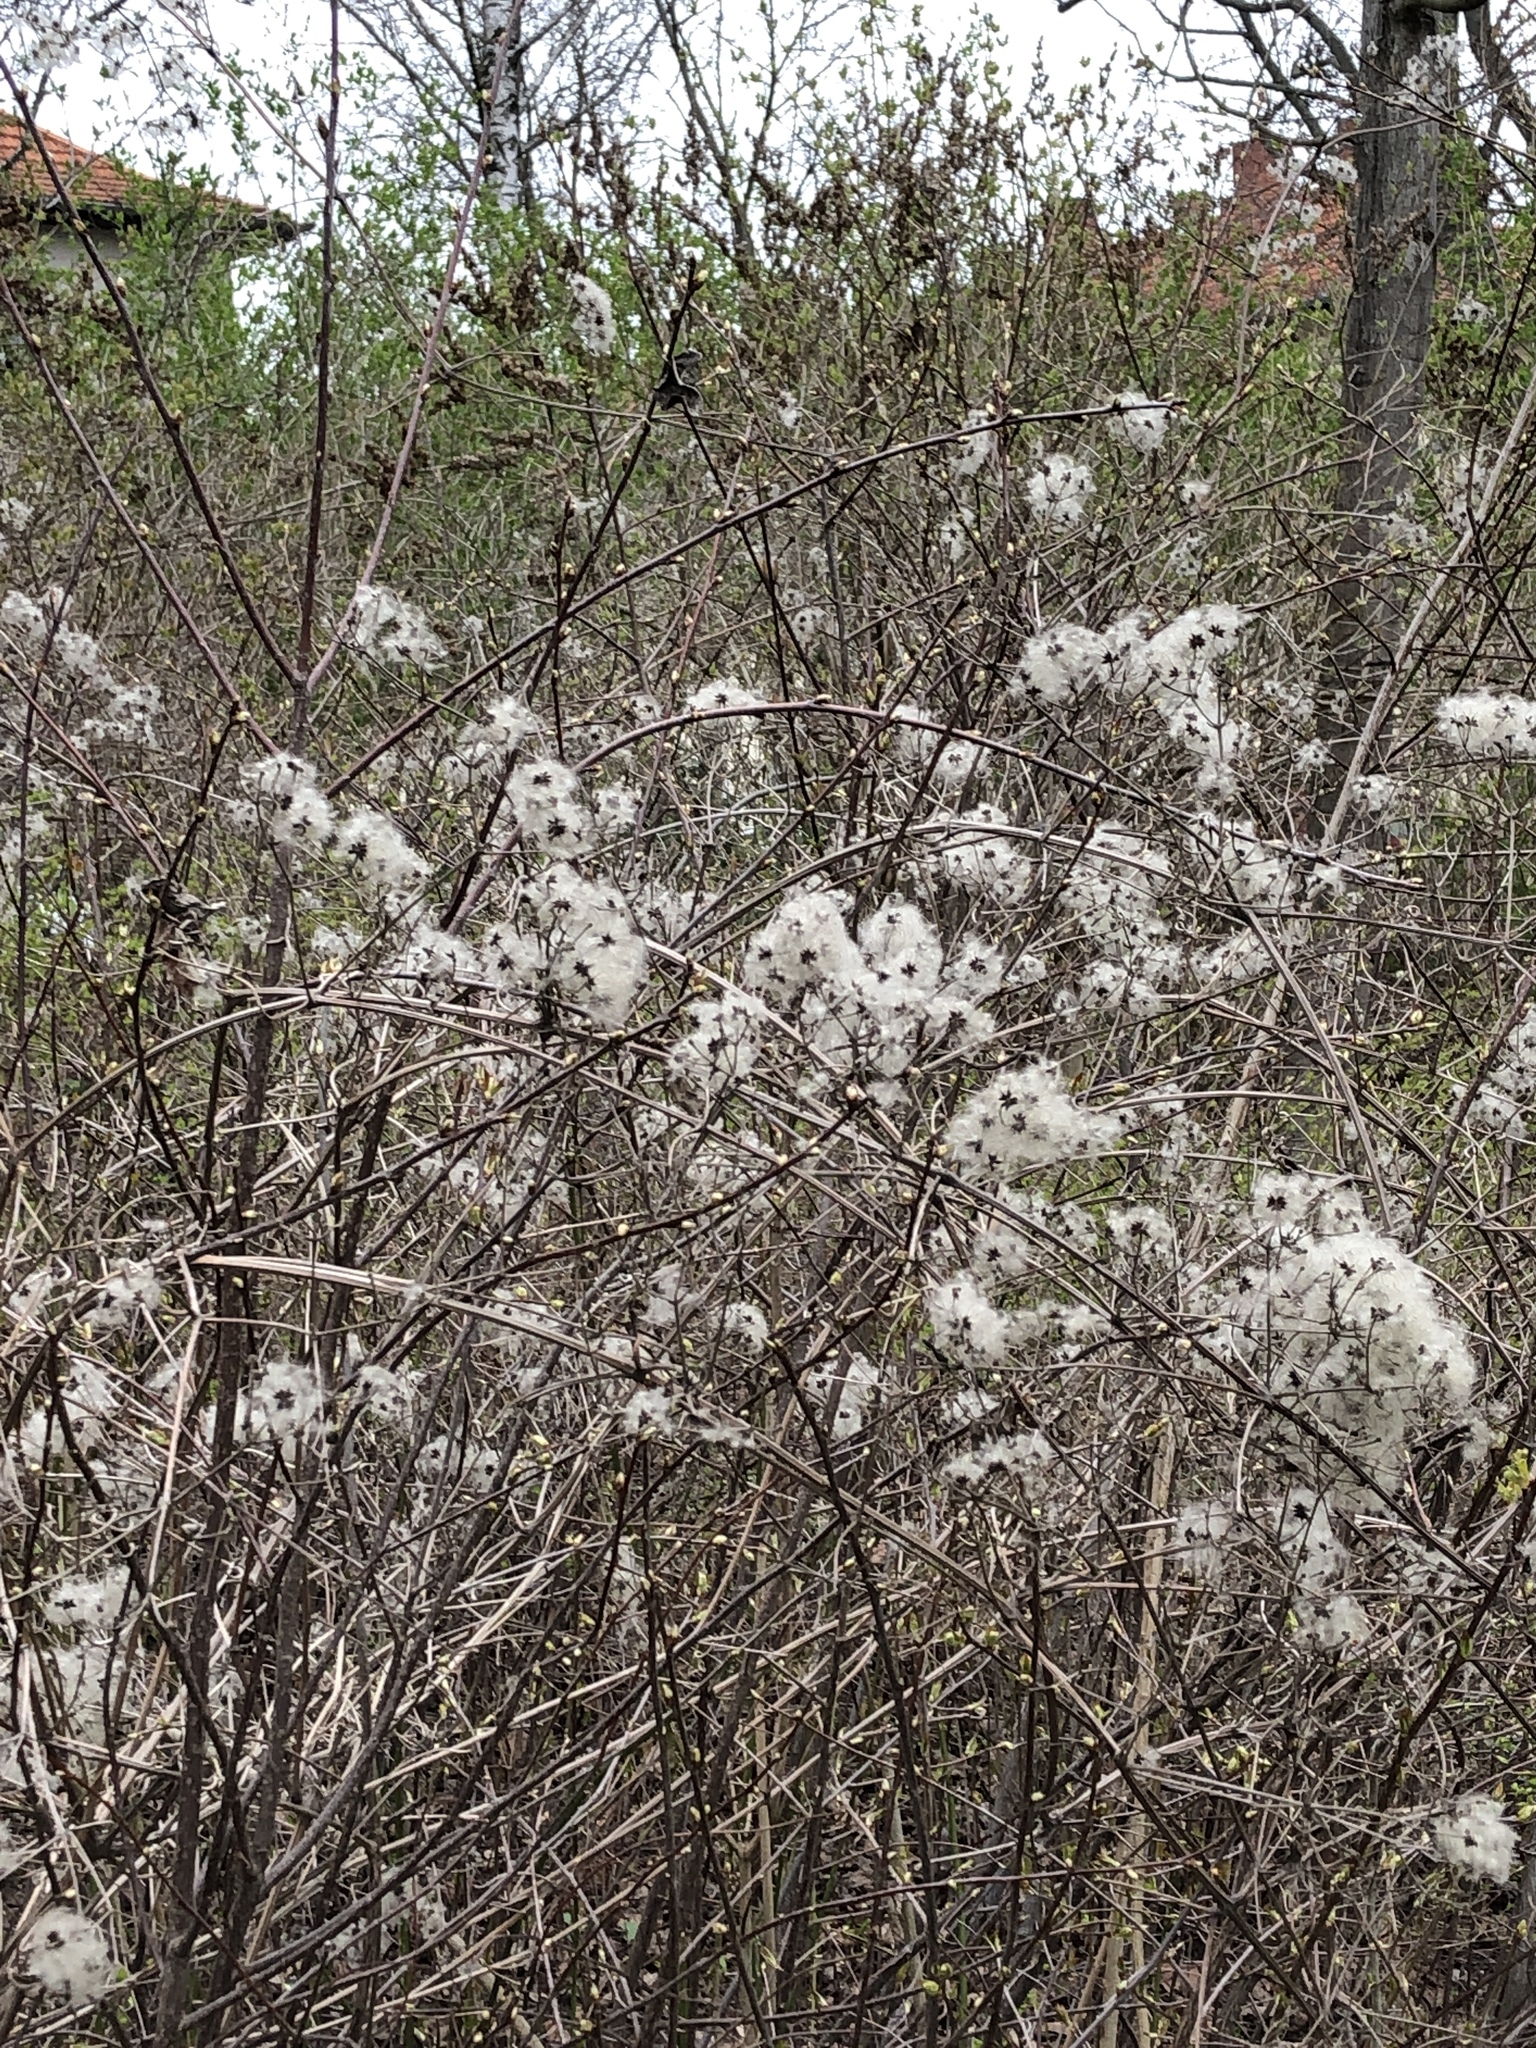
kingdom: Plantae
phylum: Tracheophyta
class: Magnoliopsida
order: Ranunculales
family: Ranunculaceae
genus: Clematis
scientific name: Clematis vitalba
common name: Evergreen clematis
